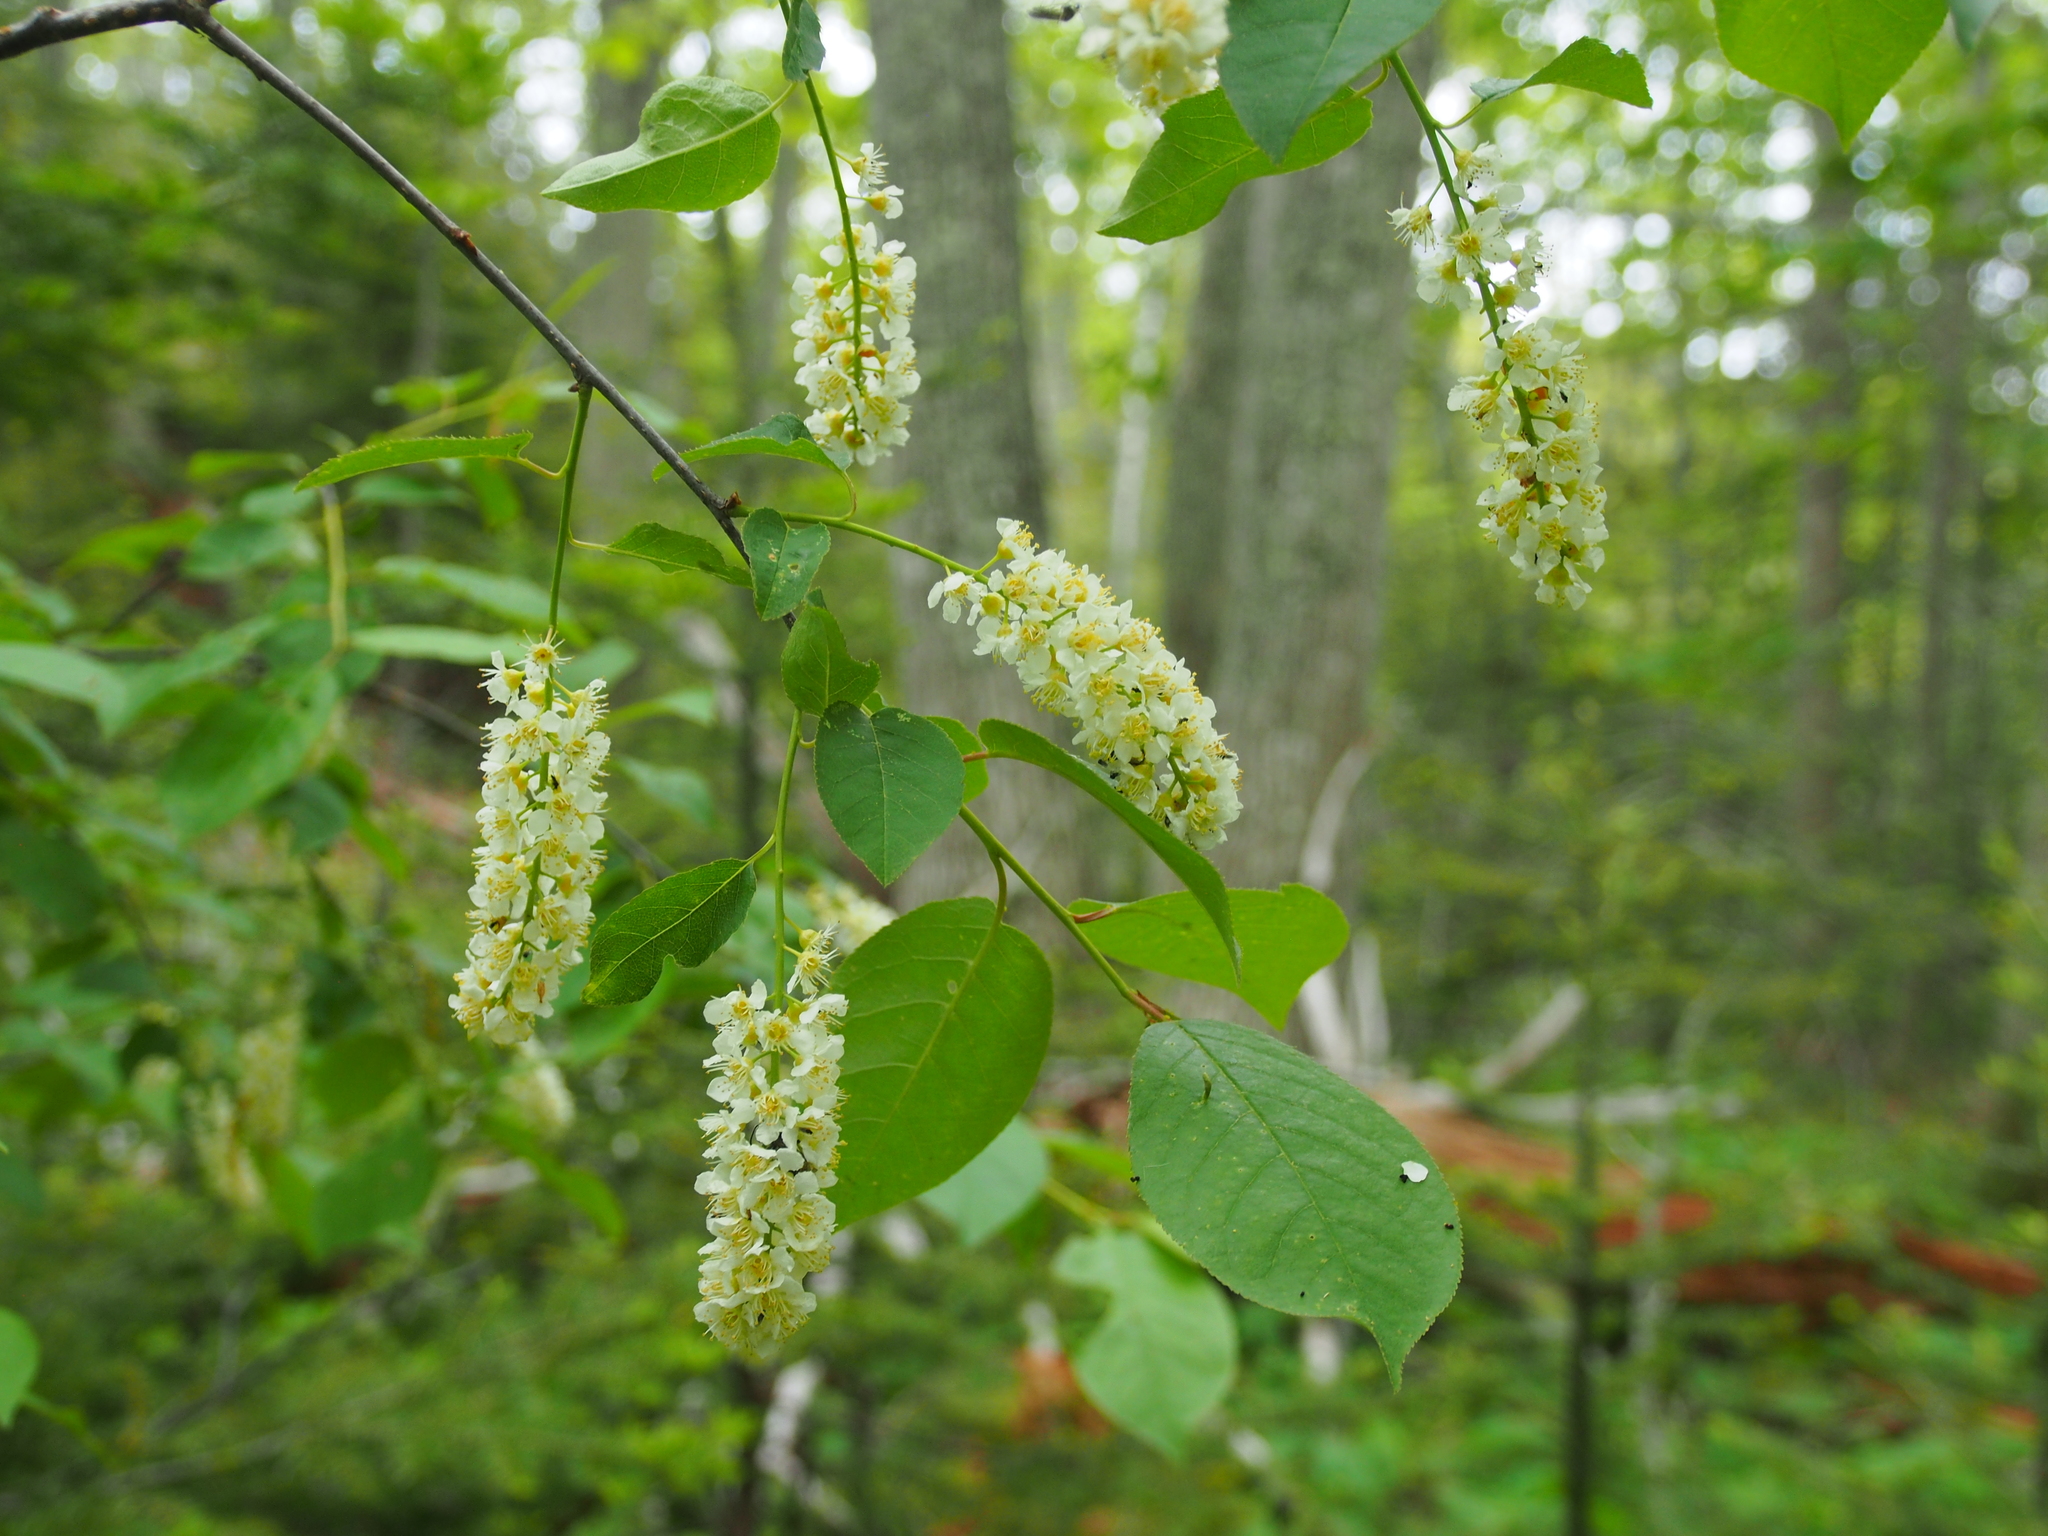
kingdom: Plantae
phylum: Tracheophyta
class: Magnoliopsida
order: Rosales
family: Rosaceae
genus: Prunus
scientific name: Prunus virginiana
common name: Chokecherry
